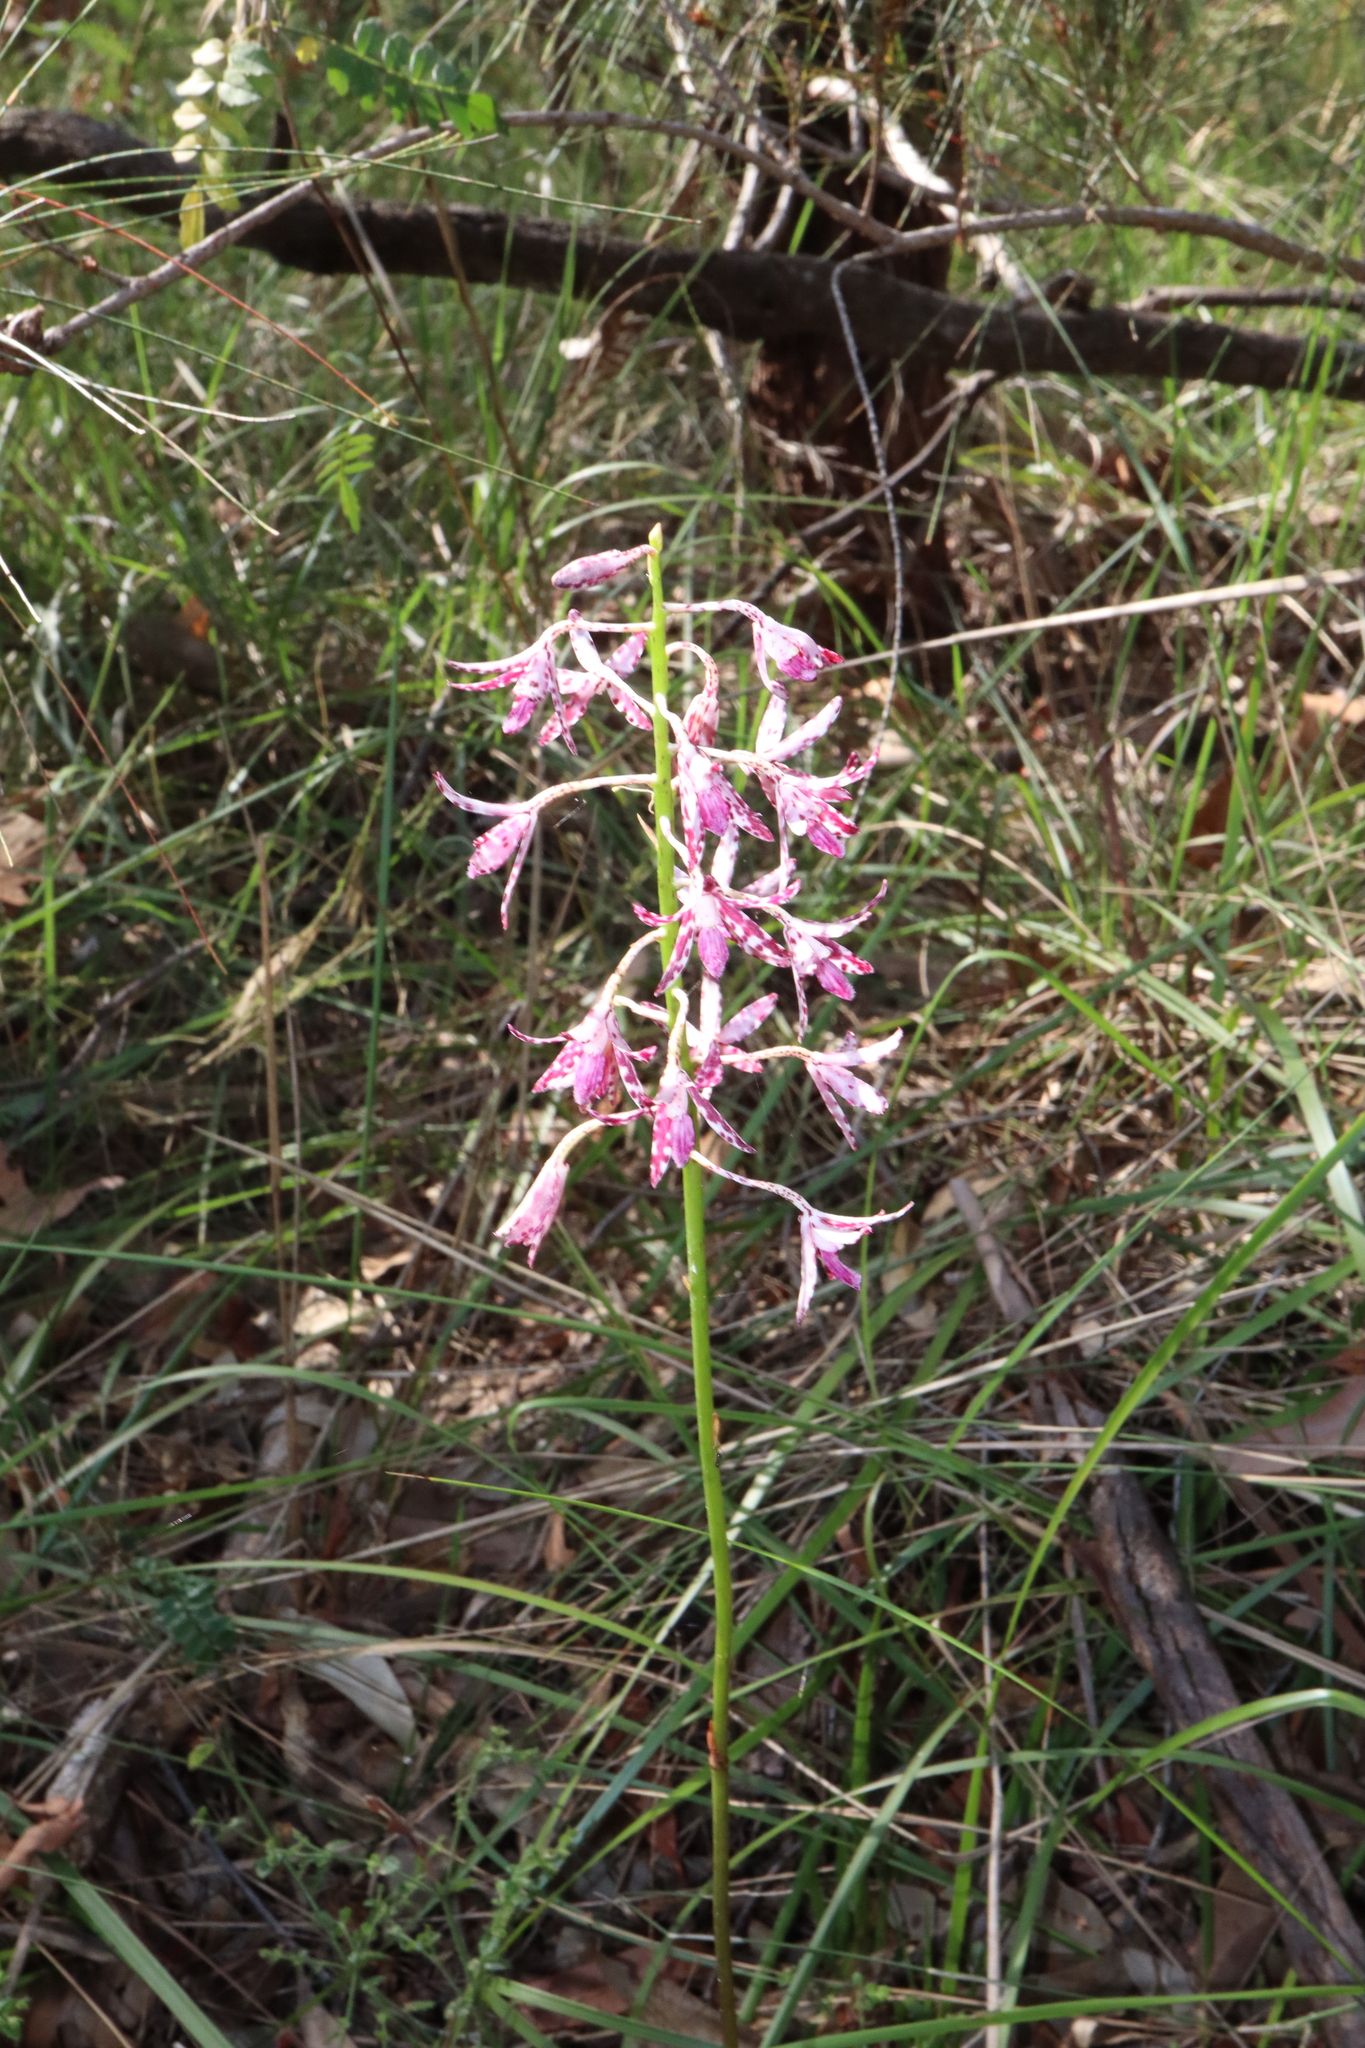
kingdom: Plantae
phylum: Tracheophyta
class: Liliopsida
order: Asparagales
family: Orchidaceae
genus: Dipodium
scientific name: Dipodium variegatum
